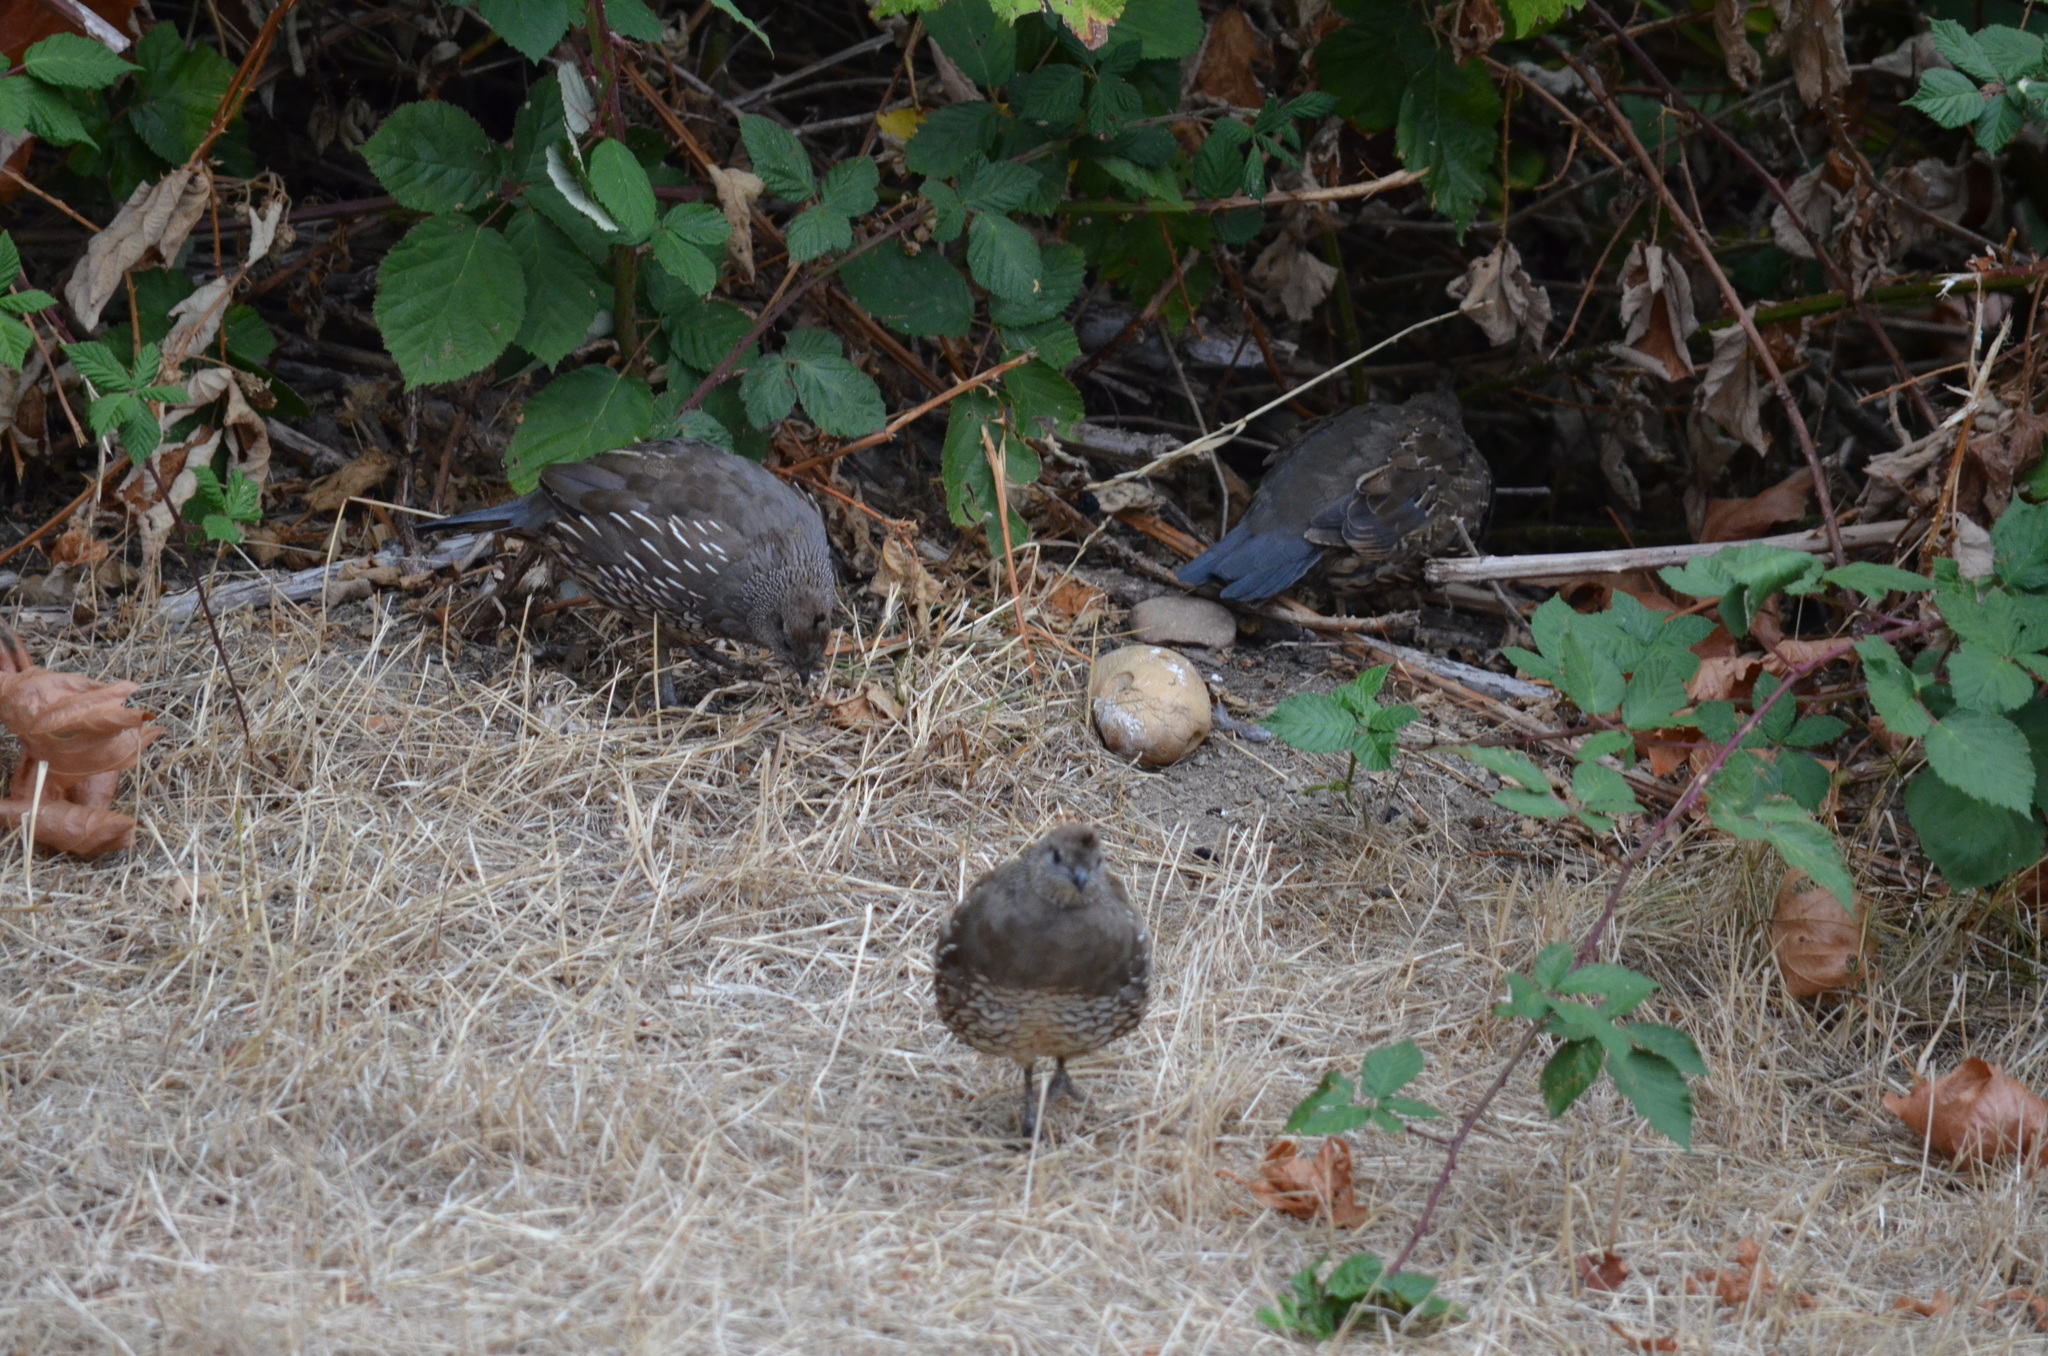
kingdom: Animalia
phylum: Chordata
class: Aves
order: Galliformes
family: Odontophoridae
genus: Callipepla
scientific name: Callipepla californica
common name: California quail
